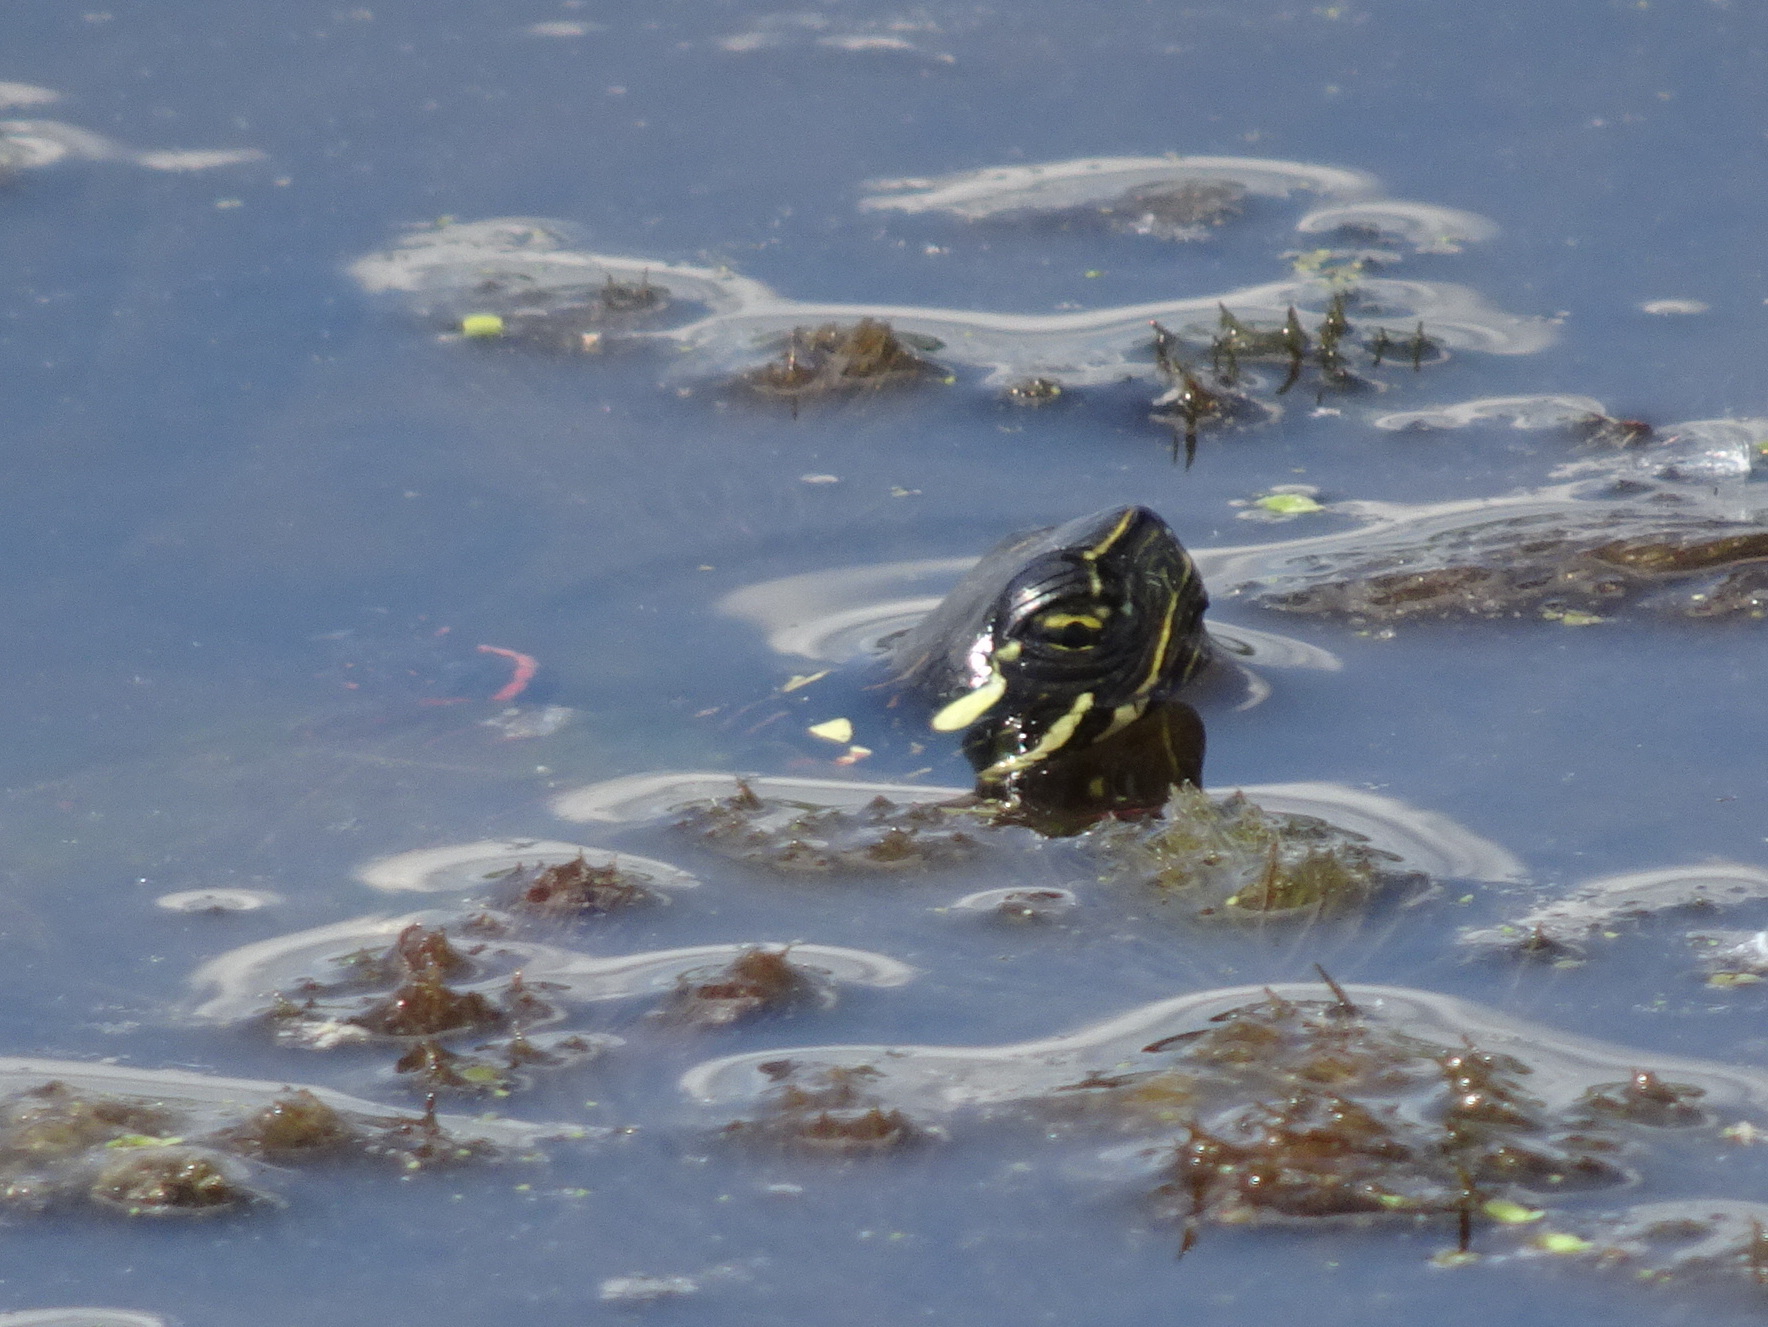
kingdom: Animalia
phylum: Chordata
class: Testudines
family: Emydidae
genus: Chrysemys
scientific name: Chrysemys picta
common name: Painted turtle
